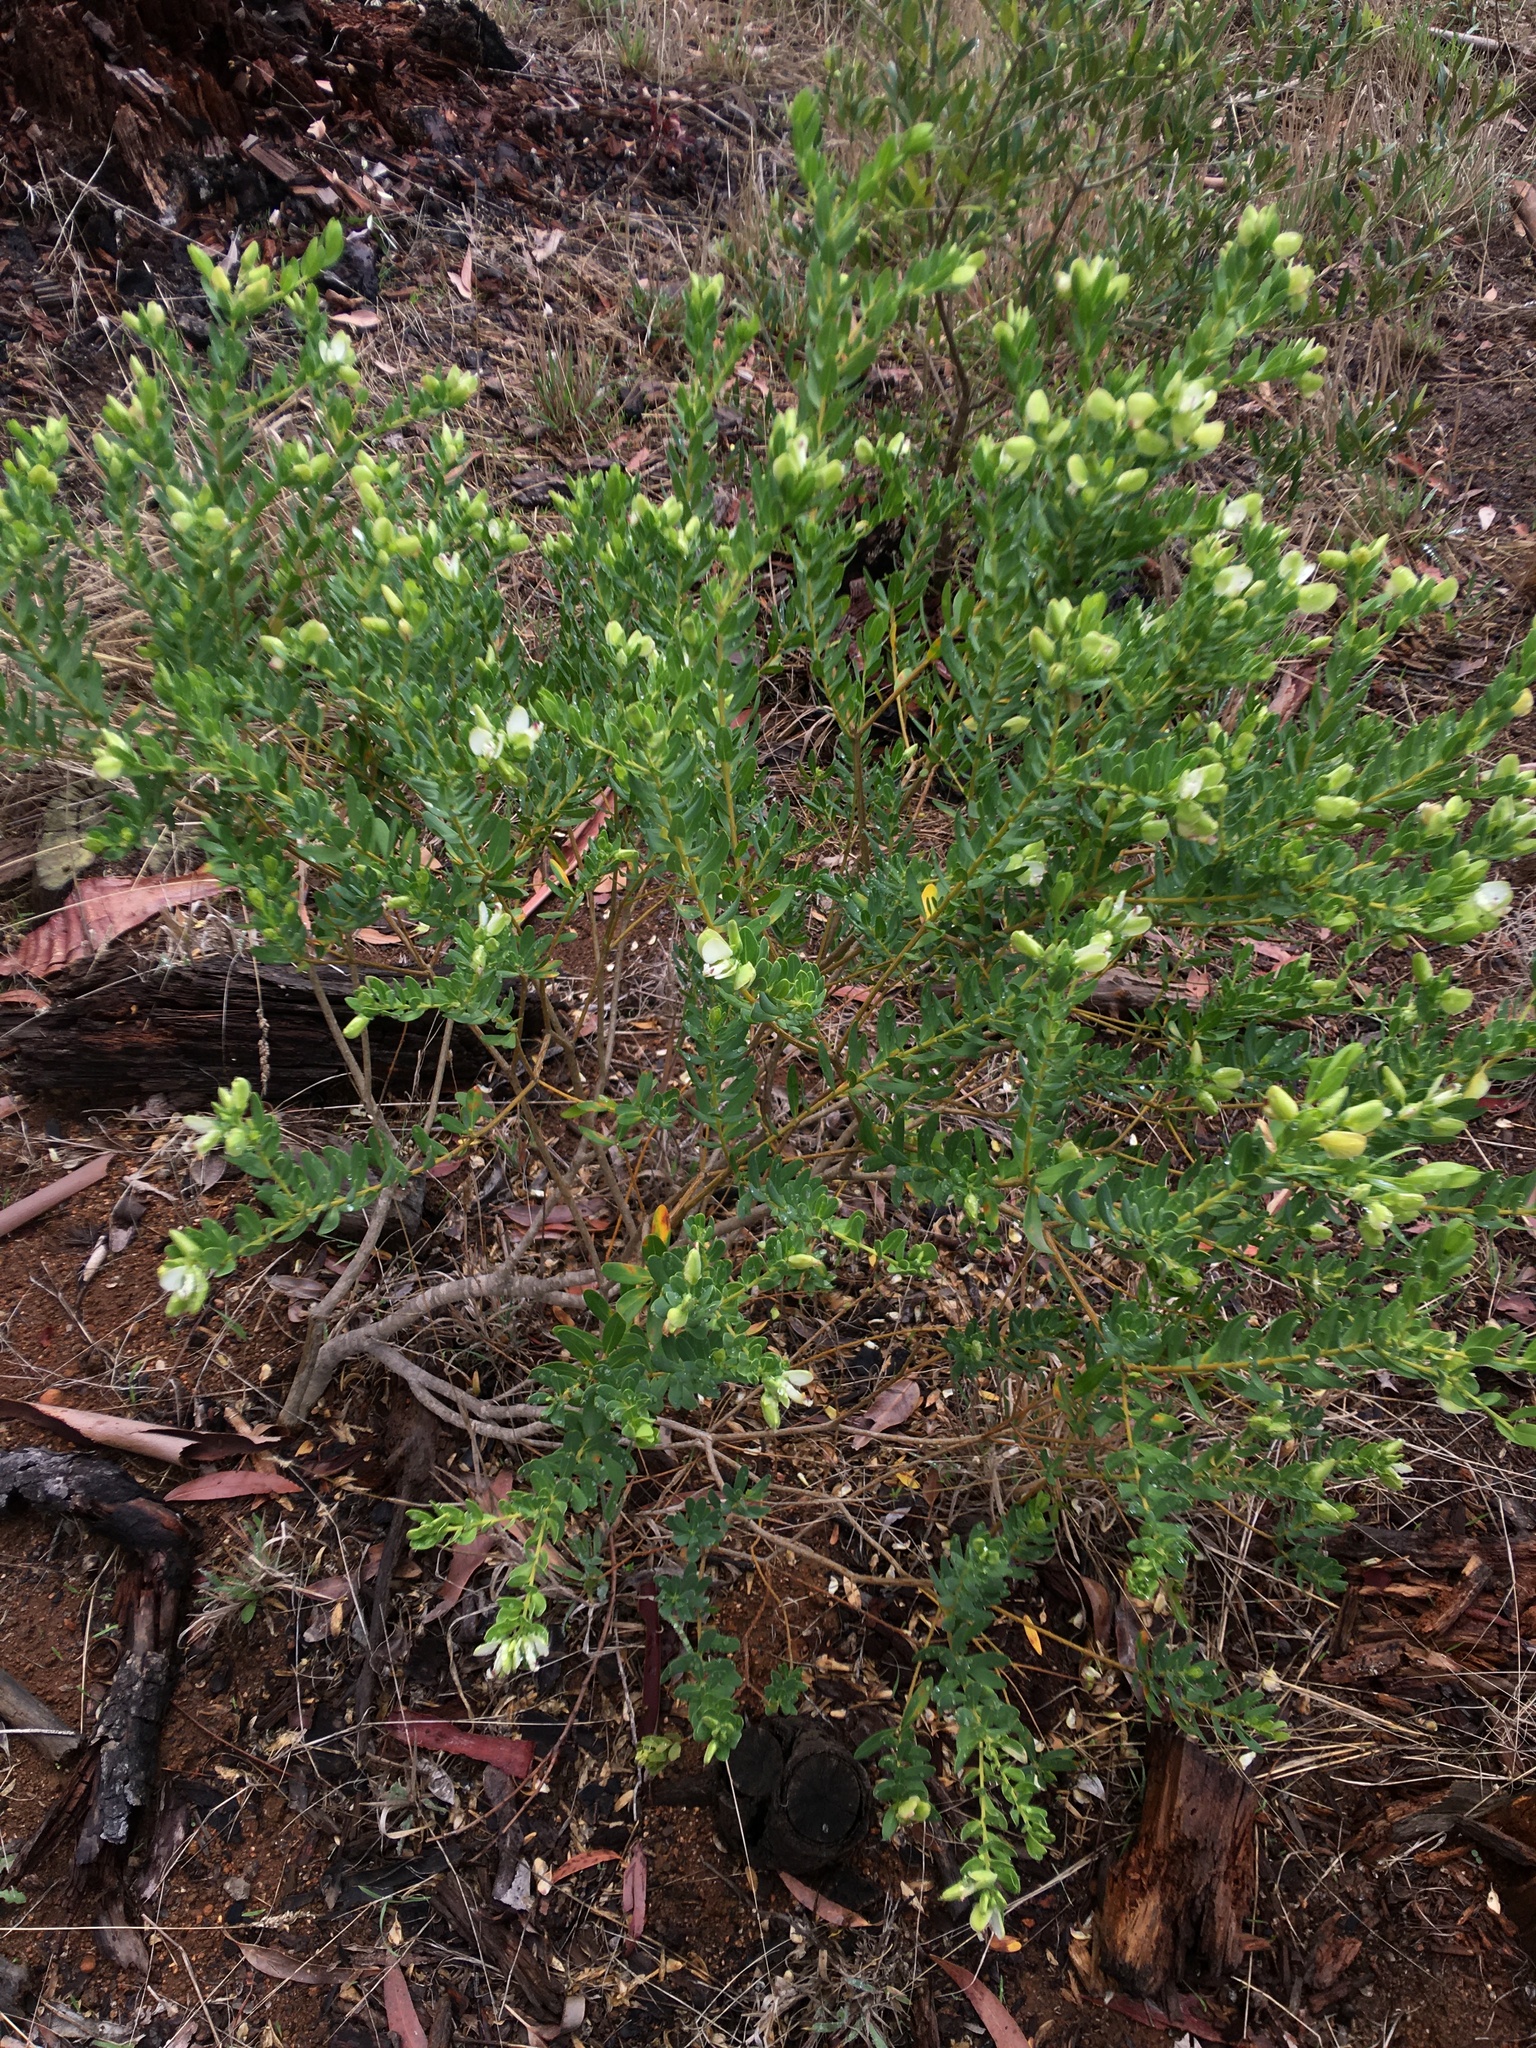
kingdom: Plantae
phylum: Tracheophyta
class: Magnoliopsida
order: Fabales
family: Polygalaceae
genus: Polygala
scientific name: Polygala myrtifolia
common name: Myrtle-leaf milkwort
